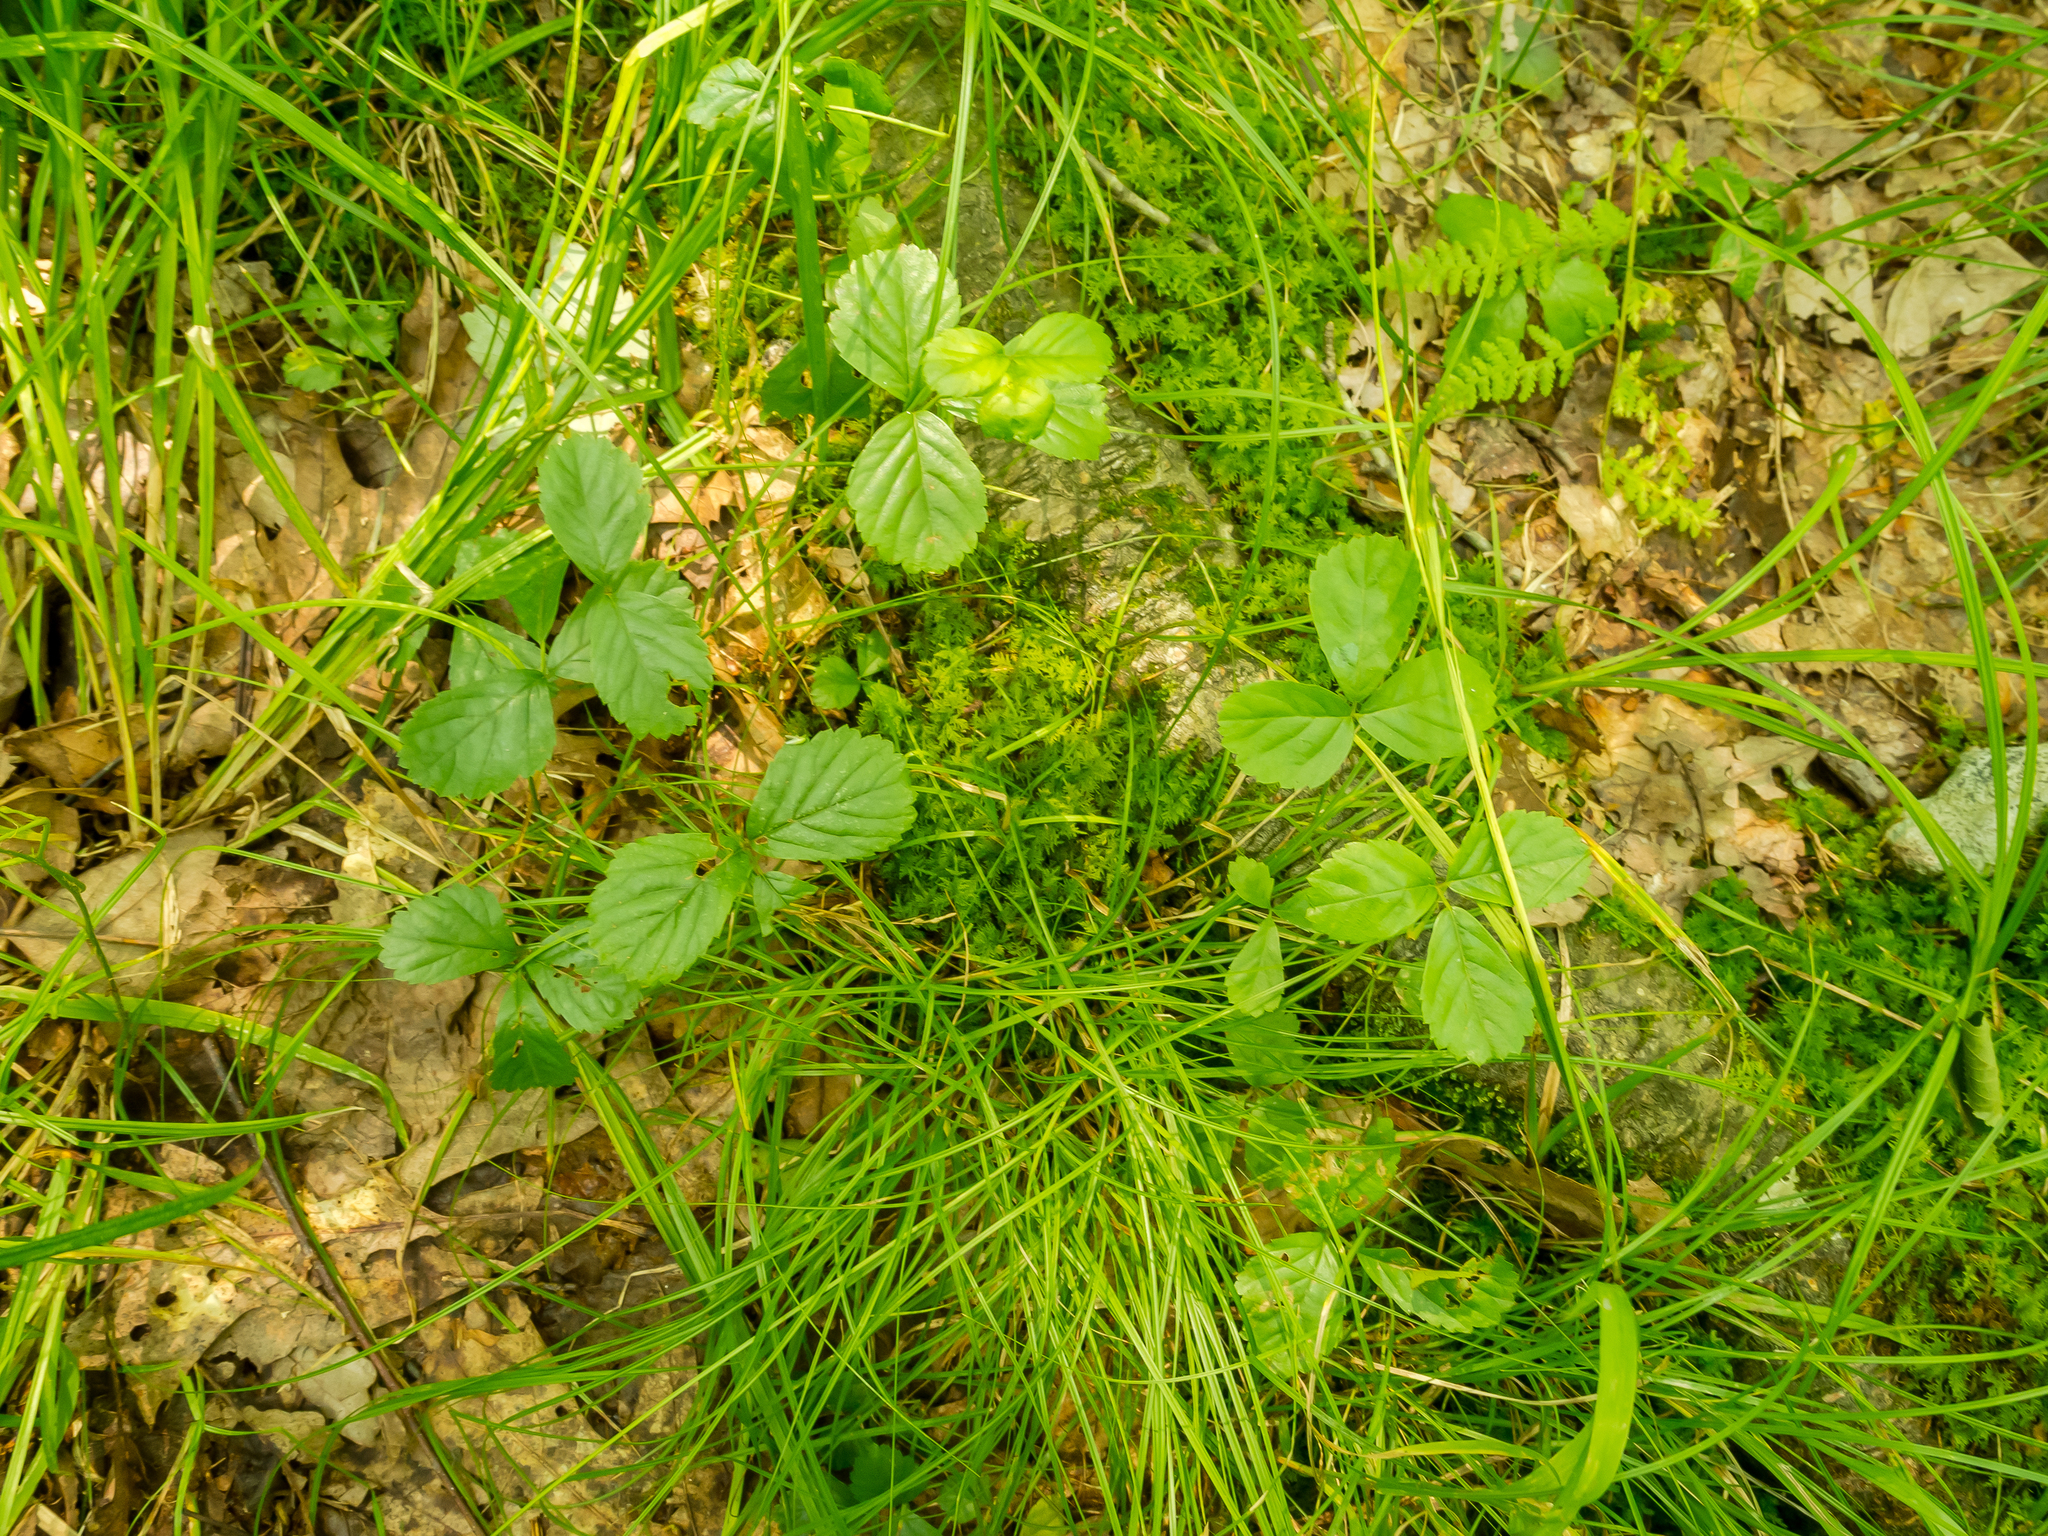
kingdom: Plantae
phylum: Tracheophyta
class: Magnoliopsida
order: Rosales
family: Rosaceae
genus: Rubus
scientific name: Rubus hispidus
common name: Running blackberry
